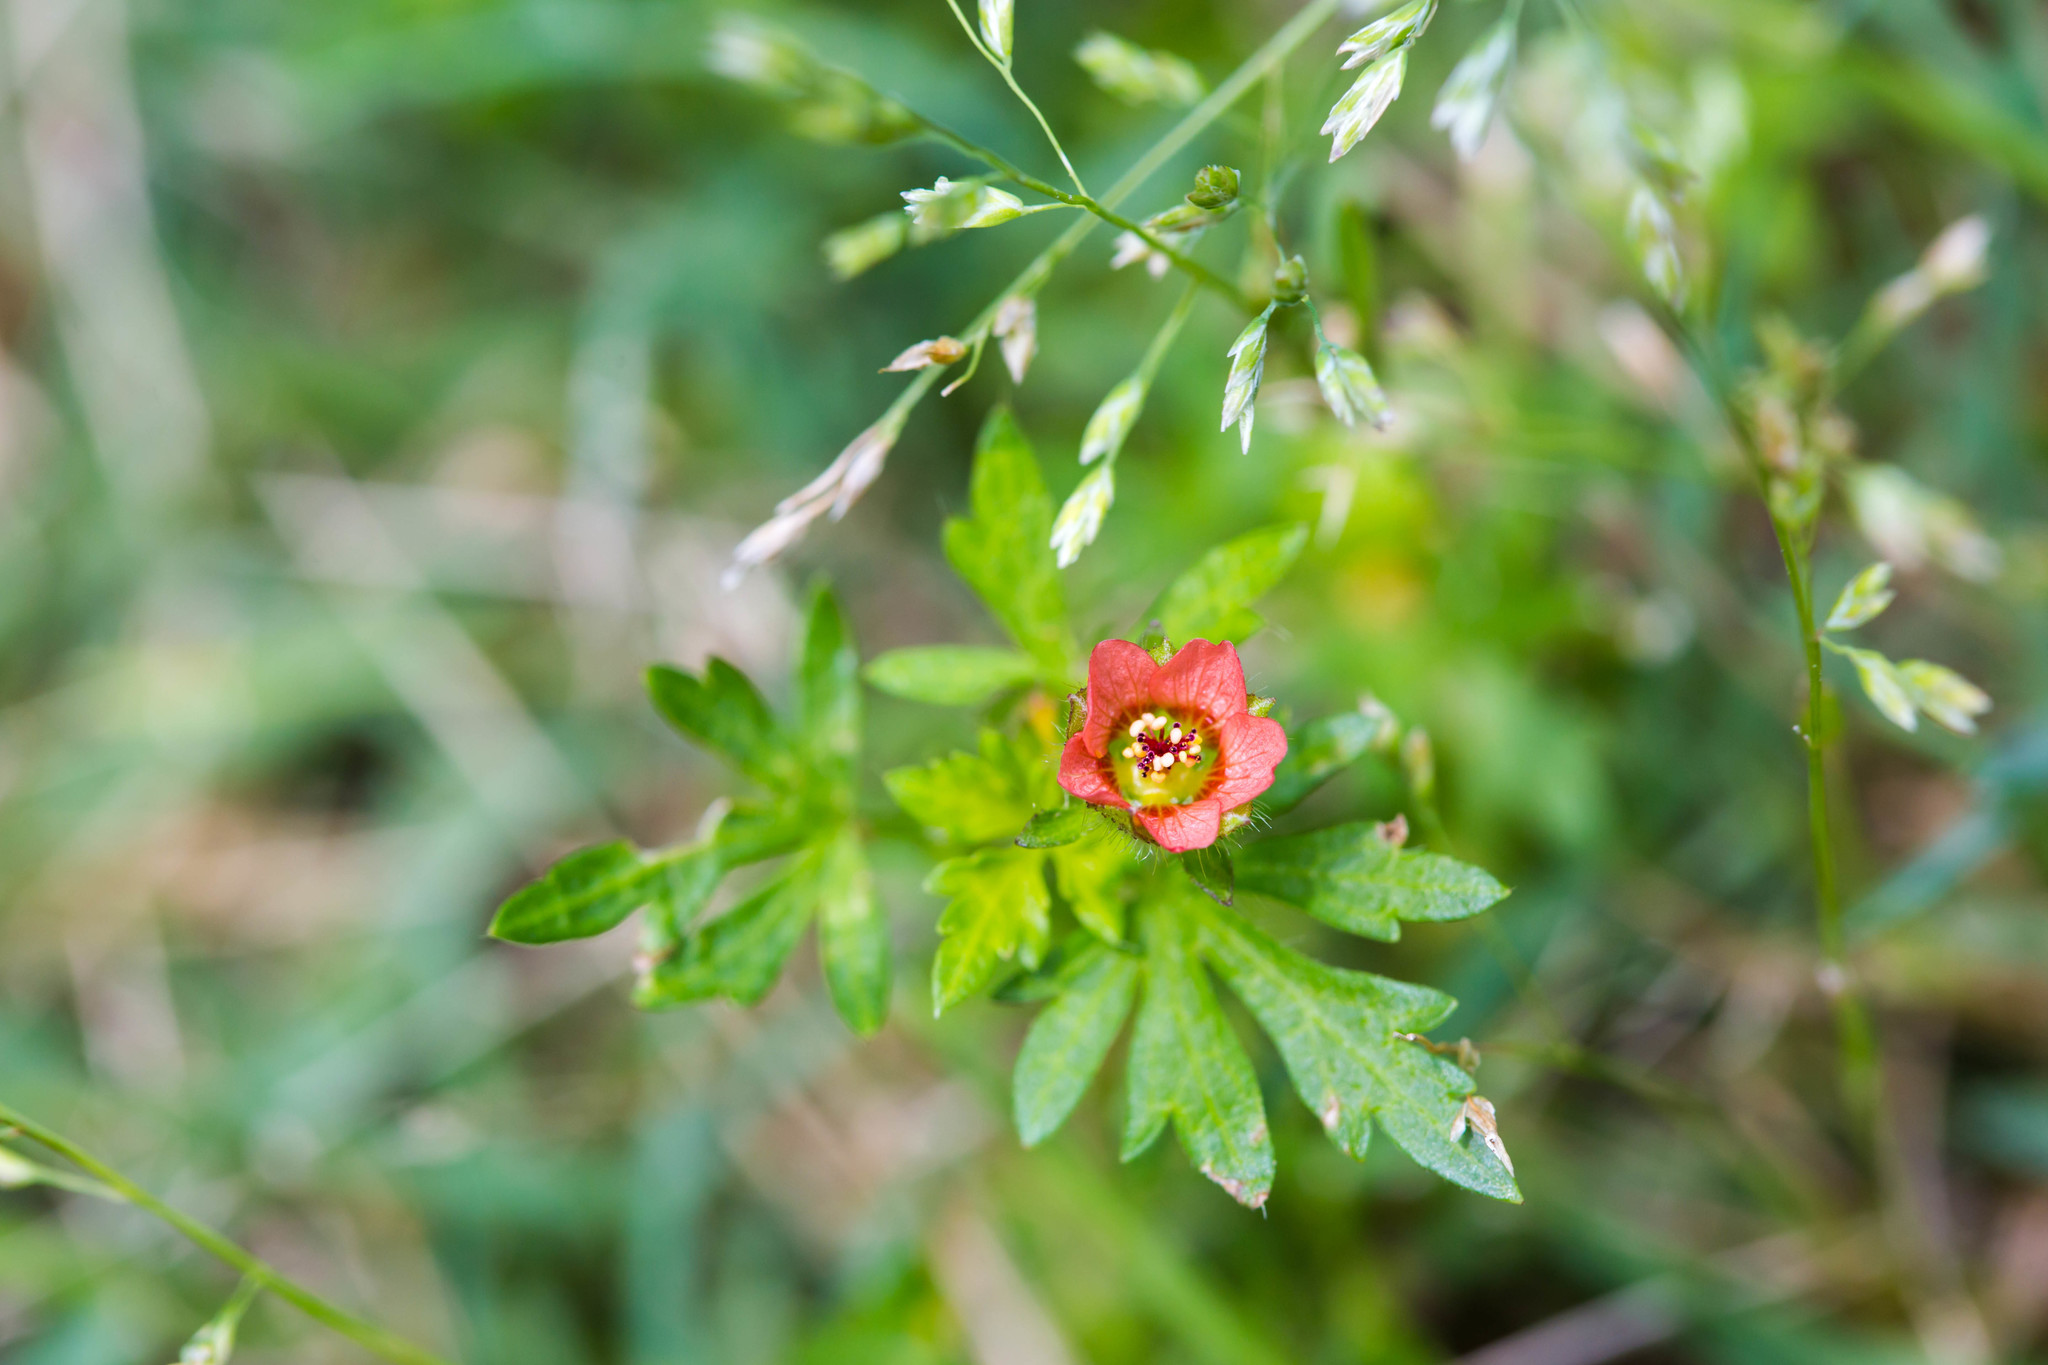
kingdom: Plantae
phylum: Tracheophyta
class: Magnoliopsida
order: Malvales
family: Malvaceae
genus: Modiola
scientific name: Modiola caroliniana
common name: Carolina bristlemallow
